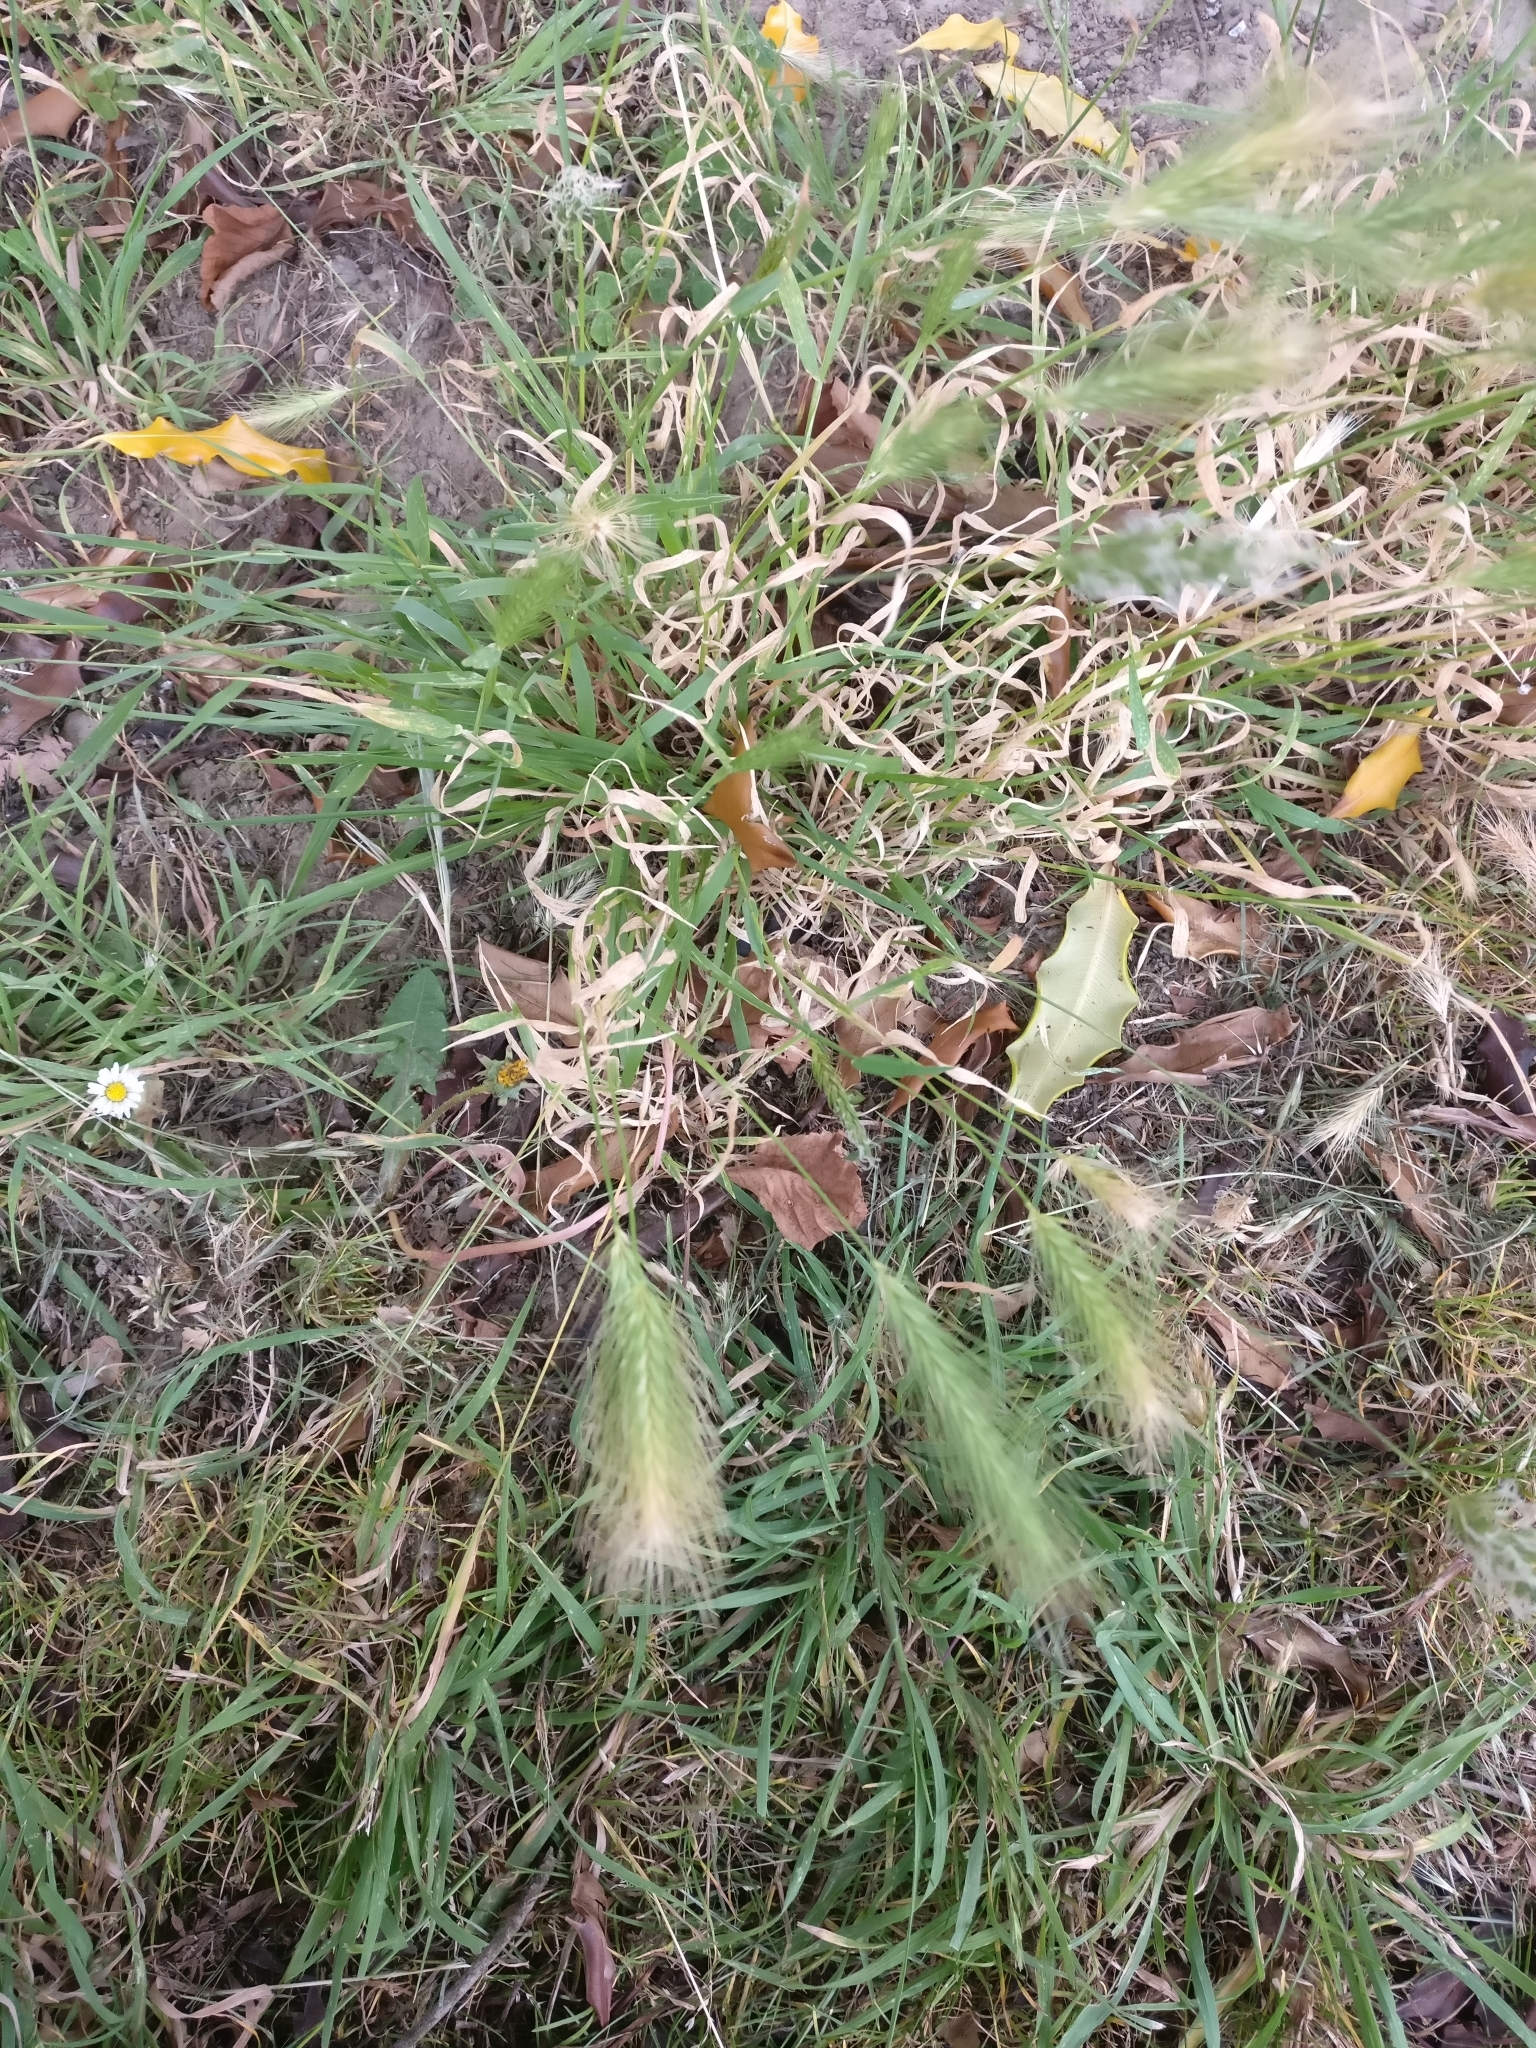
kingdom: Plantae
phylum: Tracheophyta
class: Liliopsida
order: Poales
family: Poaceae
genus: Hordeum
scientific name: Hordeum murinum
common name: Wall barley
